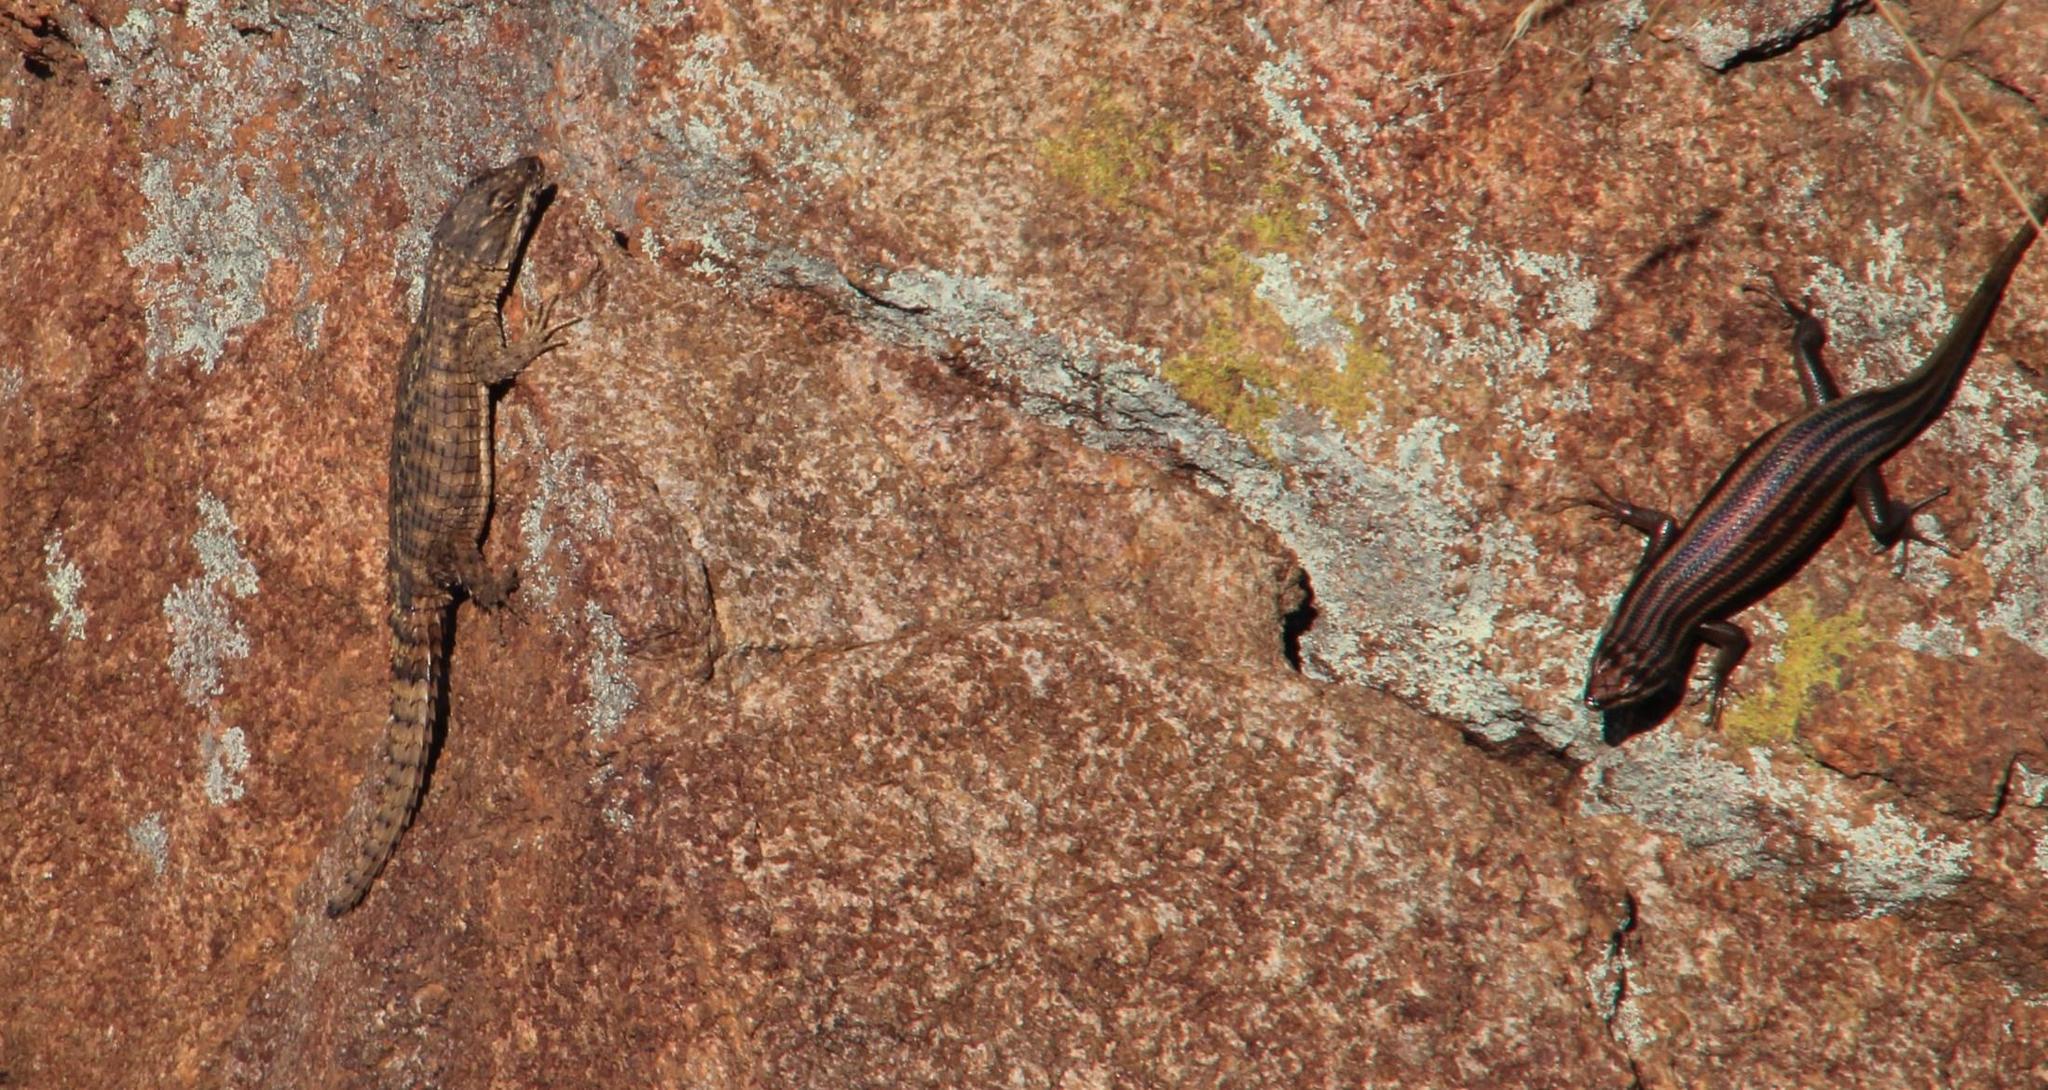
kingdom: Animalia
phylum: Chordata
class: Squamata
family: Scincidae
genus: Trachylepis
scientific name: Trachylepis sulcata
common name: Western rock skink
